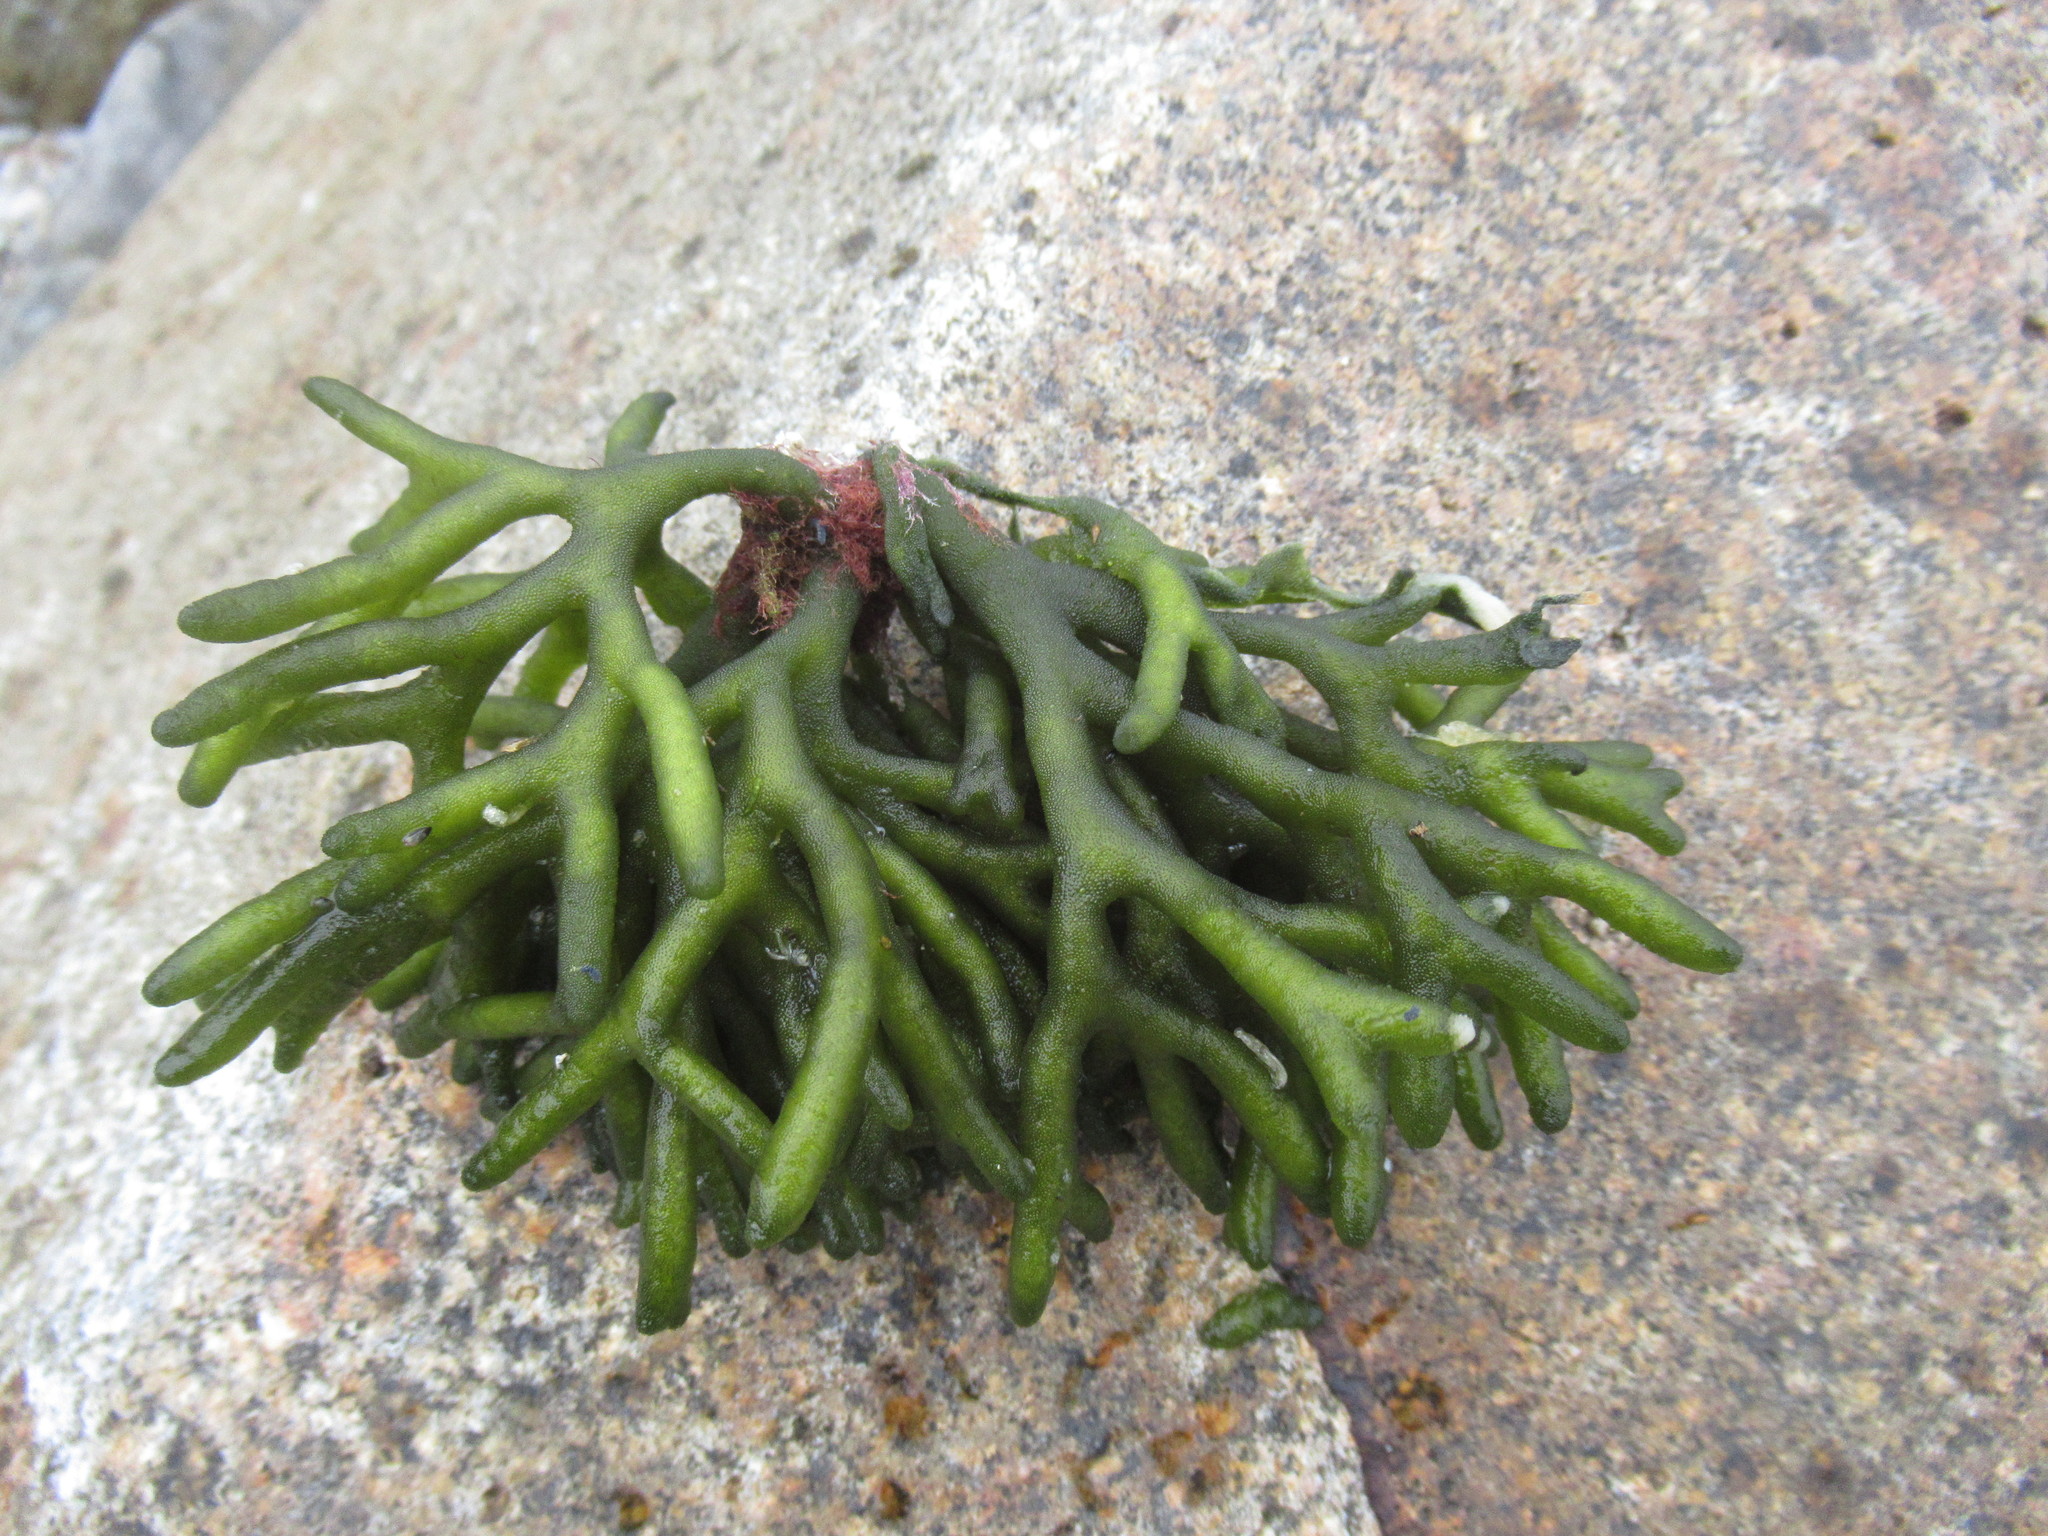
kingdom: Plantae
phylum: Chlorophyta
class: Ulvophyceae
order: Bryopsidales
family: Codiaceae
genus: Codium
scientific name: Codium fragile
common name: Dead man's fingers
